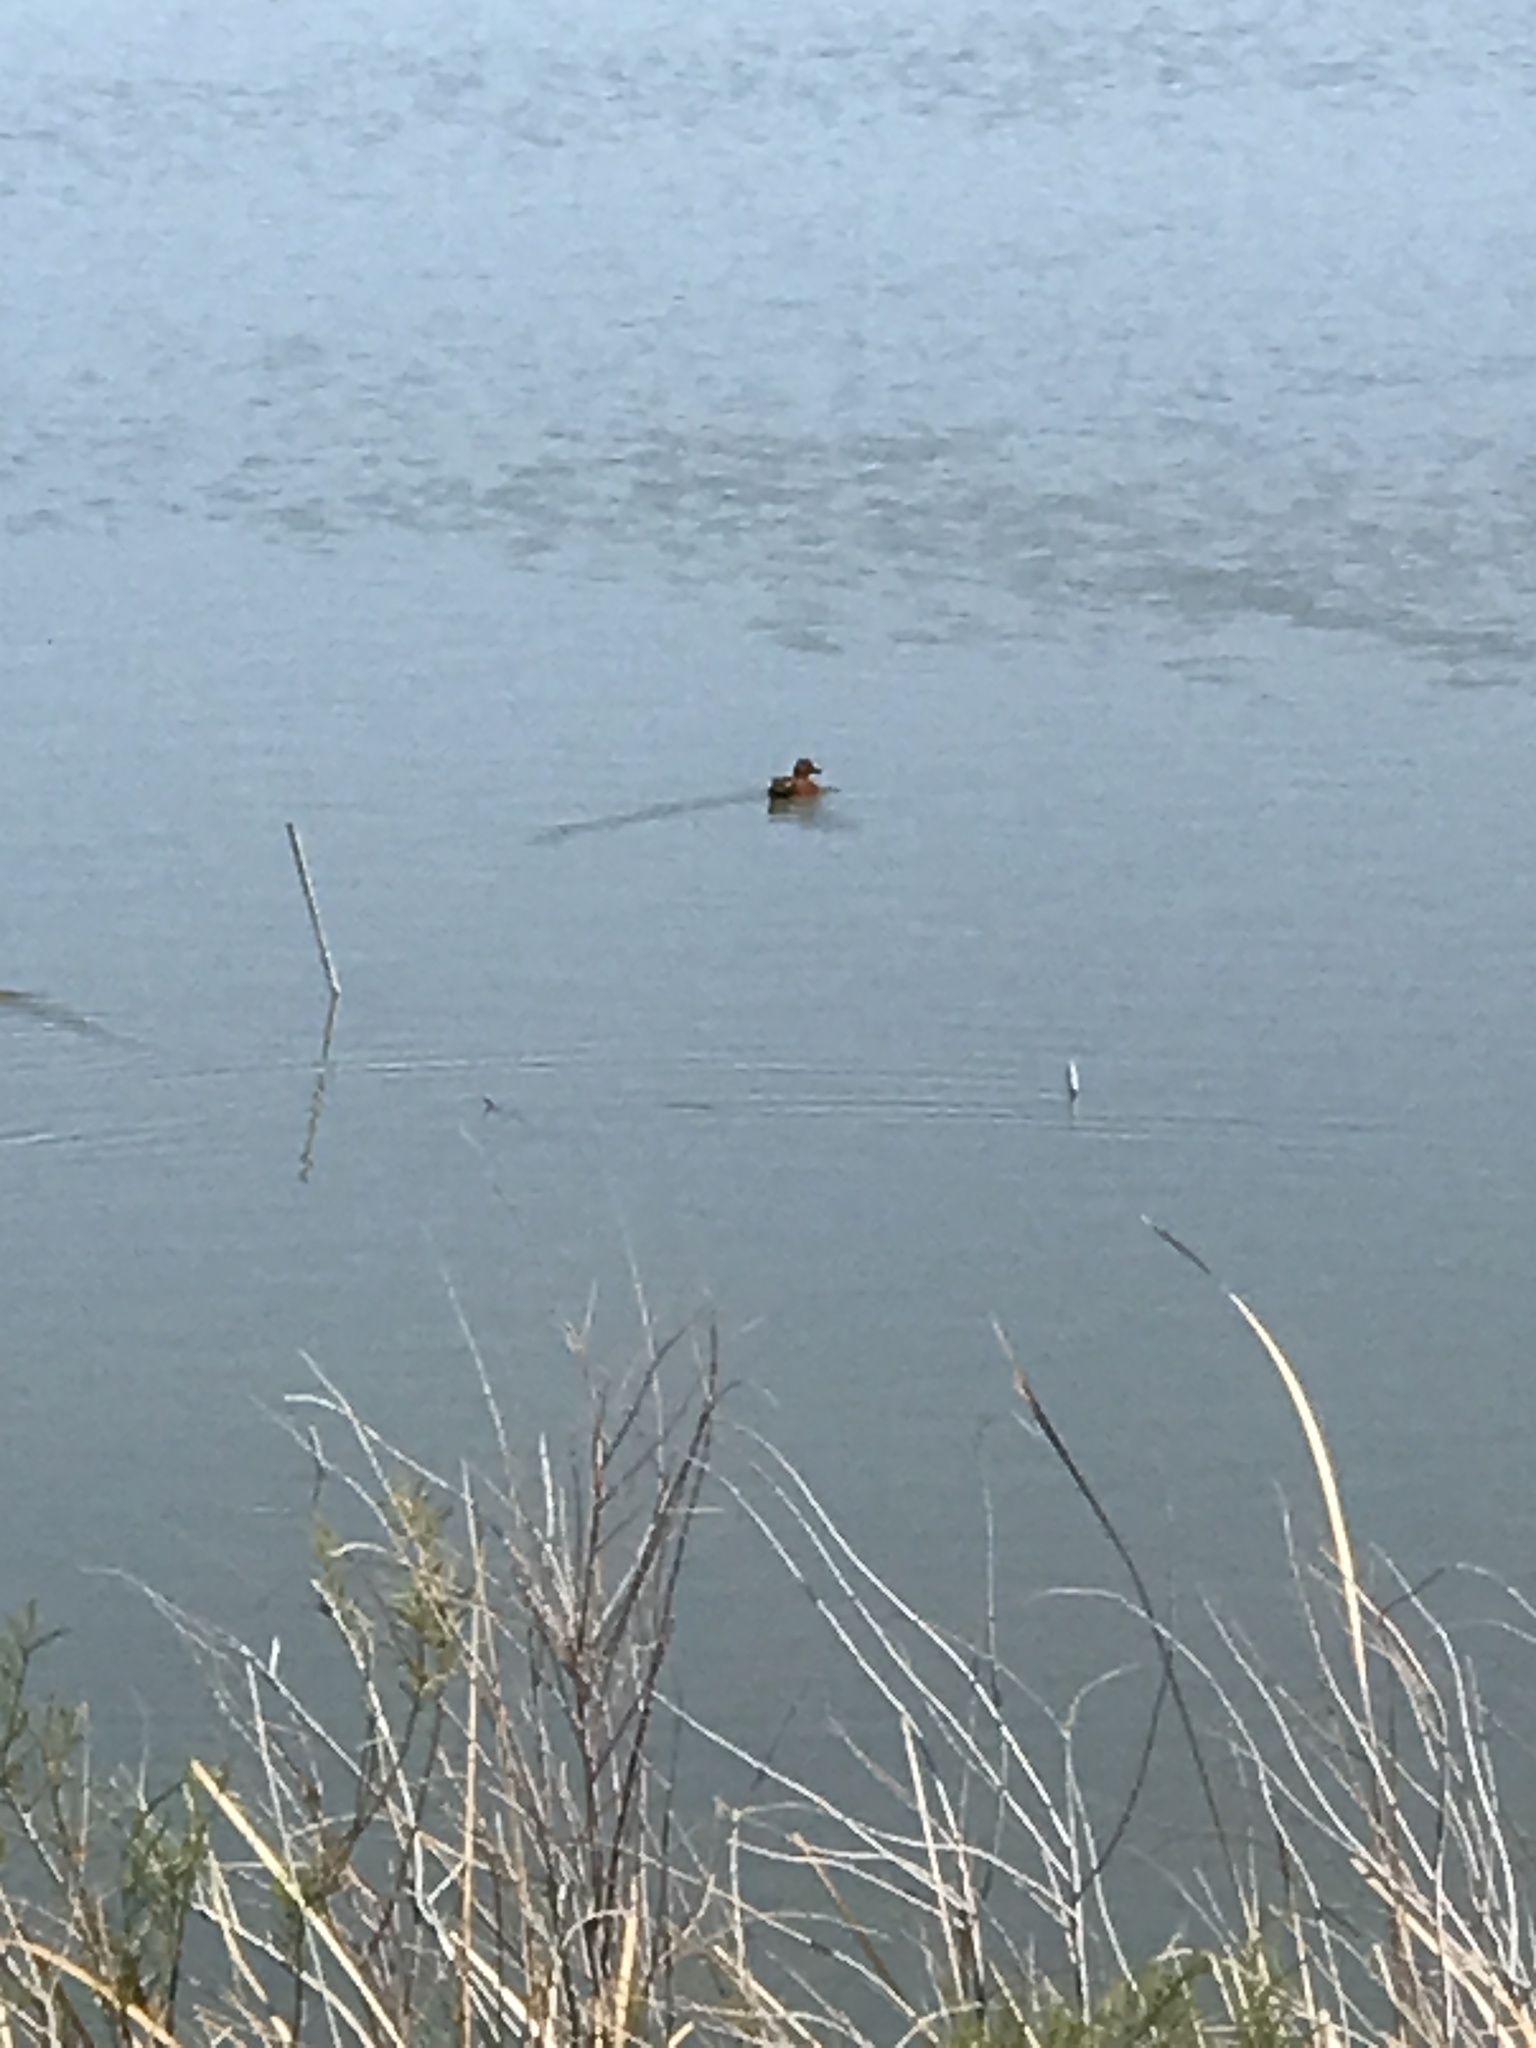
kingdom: Animalia
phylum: Chordata
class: Aves
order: Anseriformes
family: Anatidae
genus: Spatula
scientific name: Spatula cyanoptera
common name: Cinnamon teal
